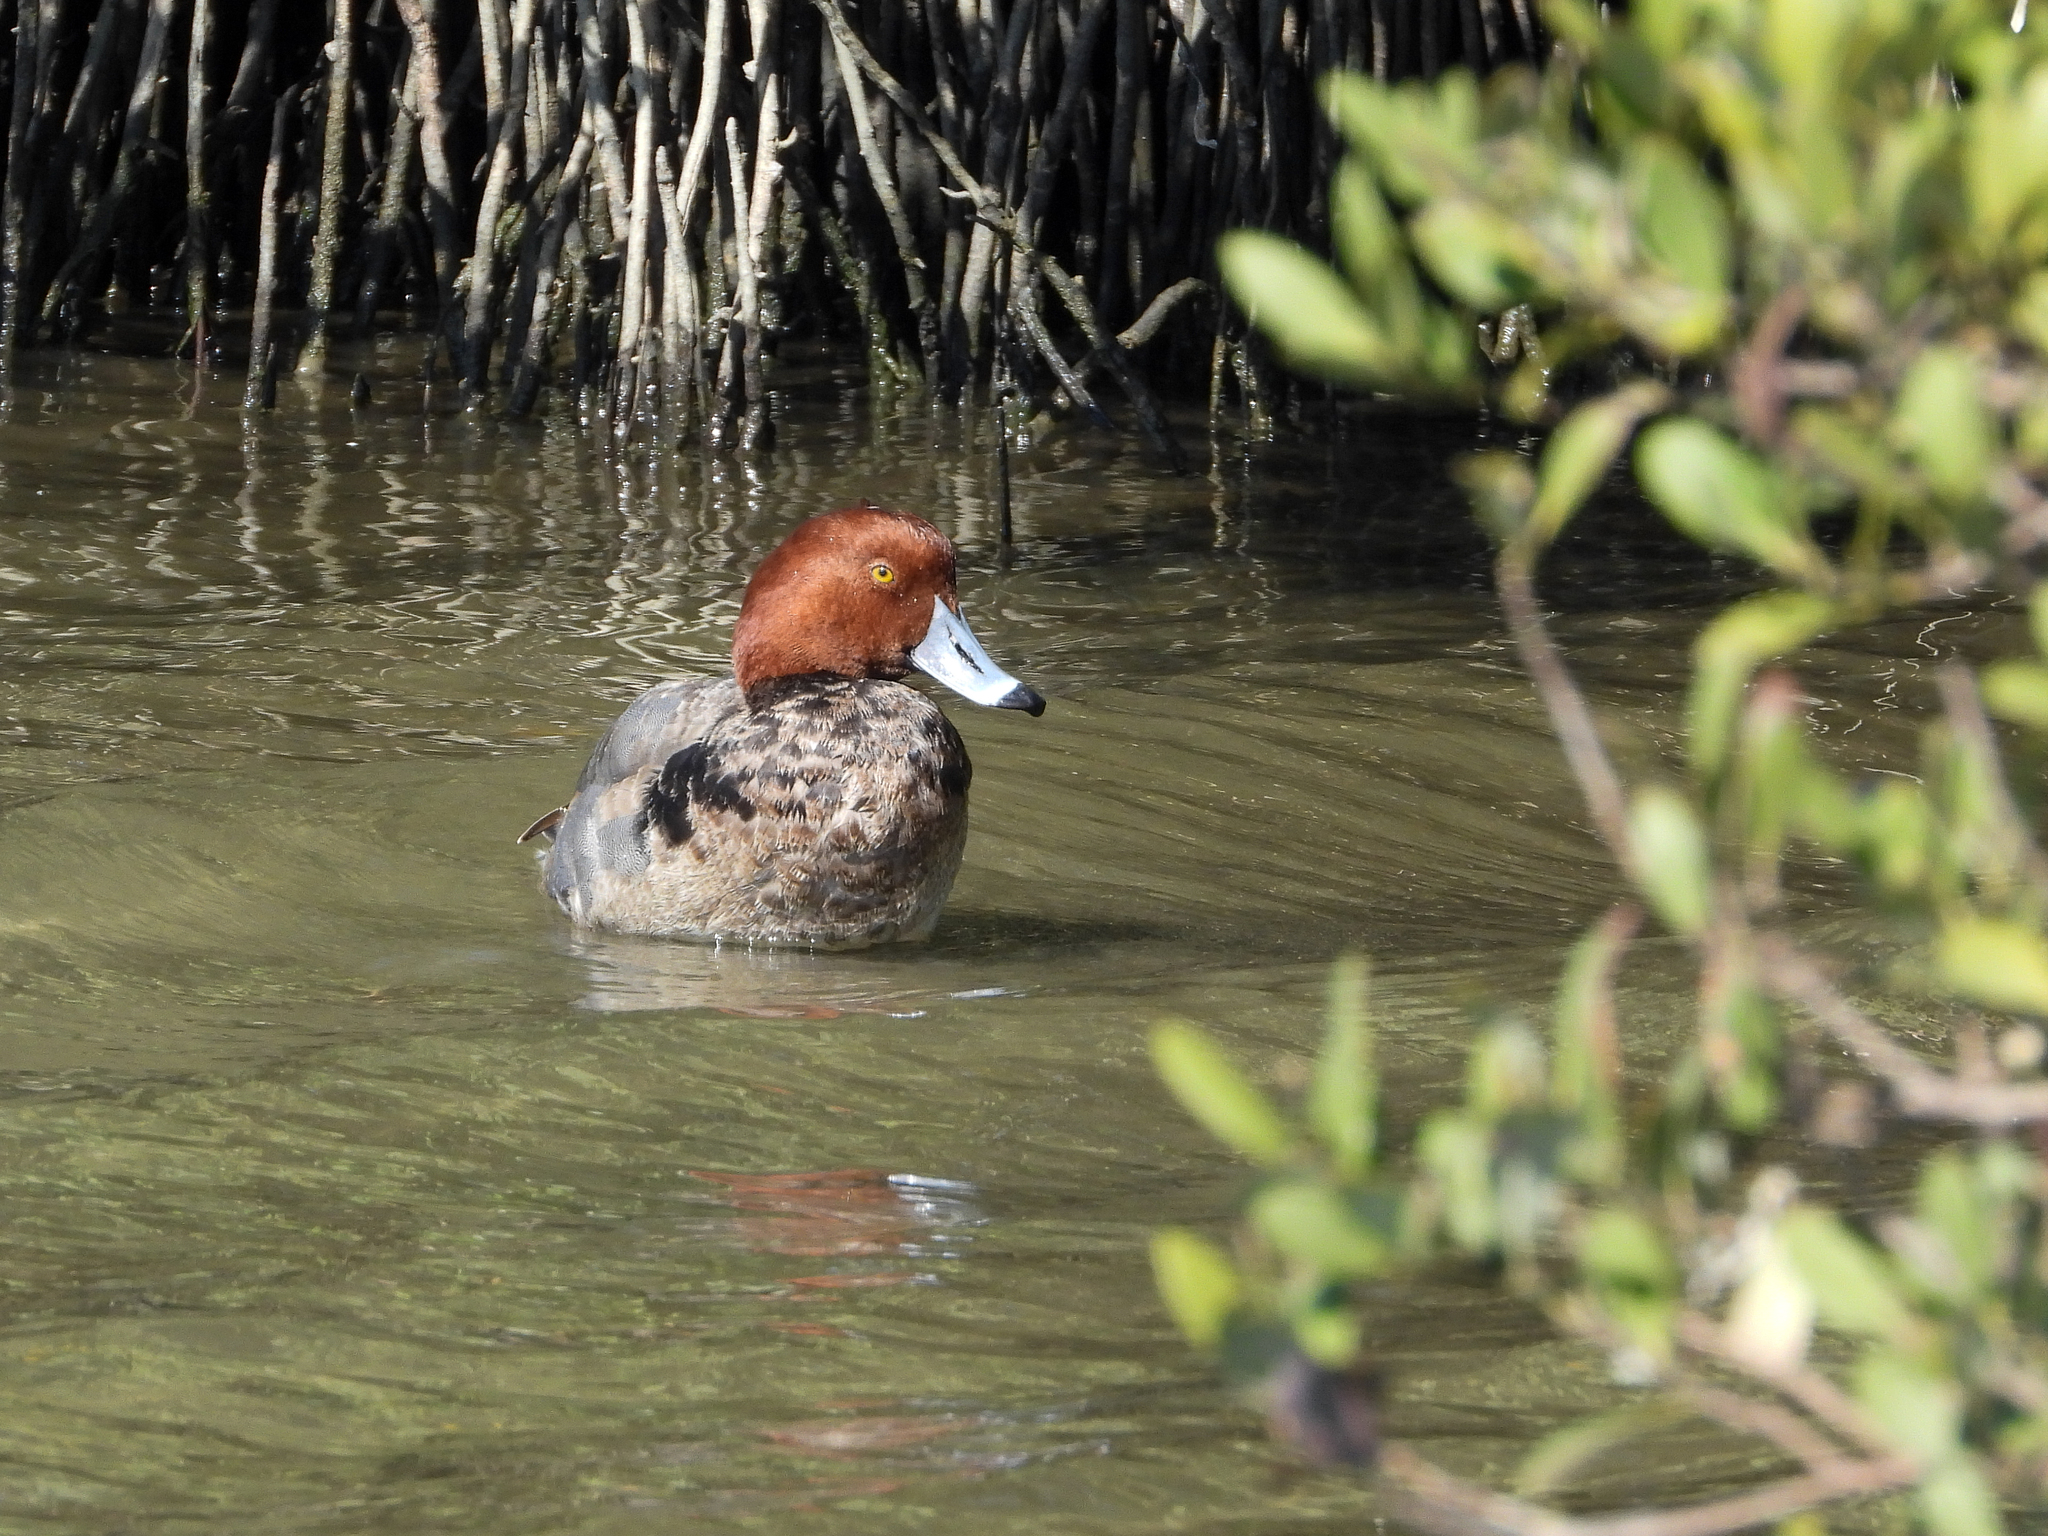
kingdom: Animalia
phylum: Chordata
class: Aves
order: Anseriformes
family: Anatidae
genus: Aythya
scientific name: Aythya americana
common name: Redhead
